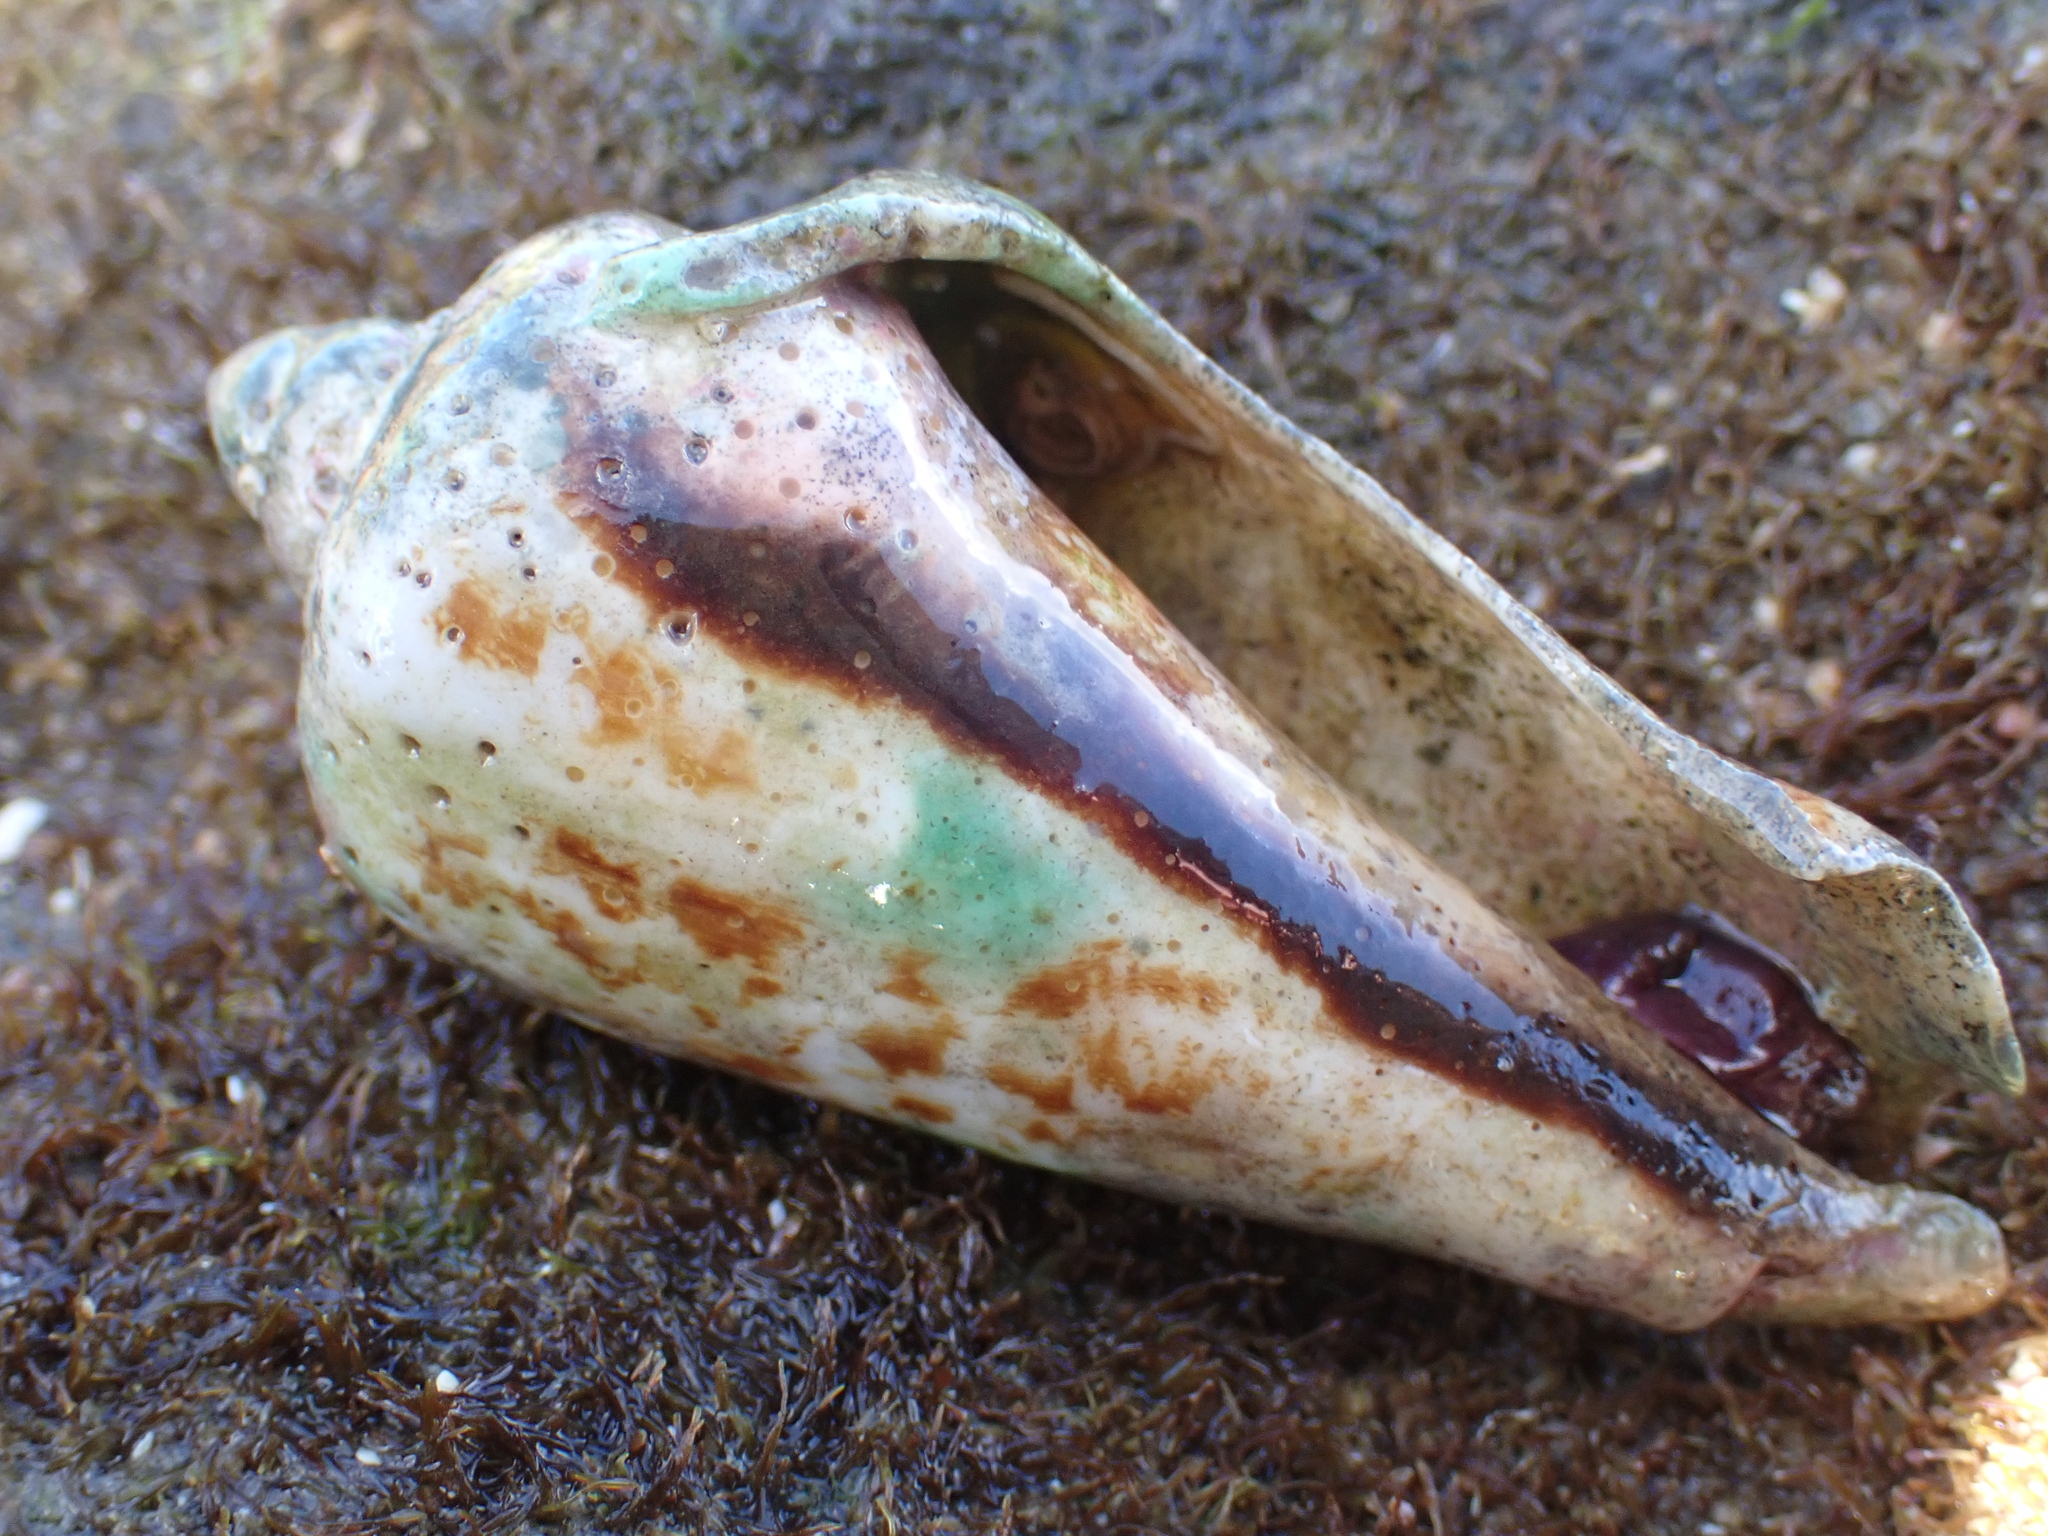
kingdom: Animalia
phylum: Mollusca
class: Gastropoda
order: Littorinimorpha
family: Strombidae
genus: Conomurex
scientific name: Conomurex luhuanus
